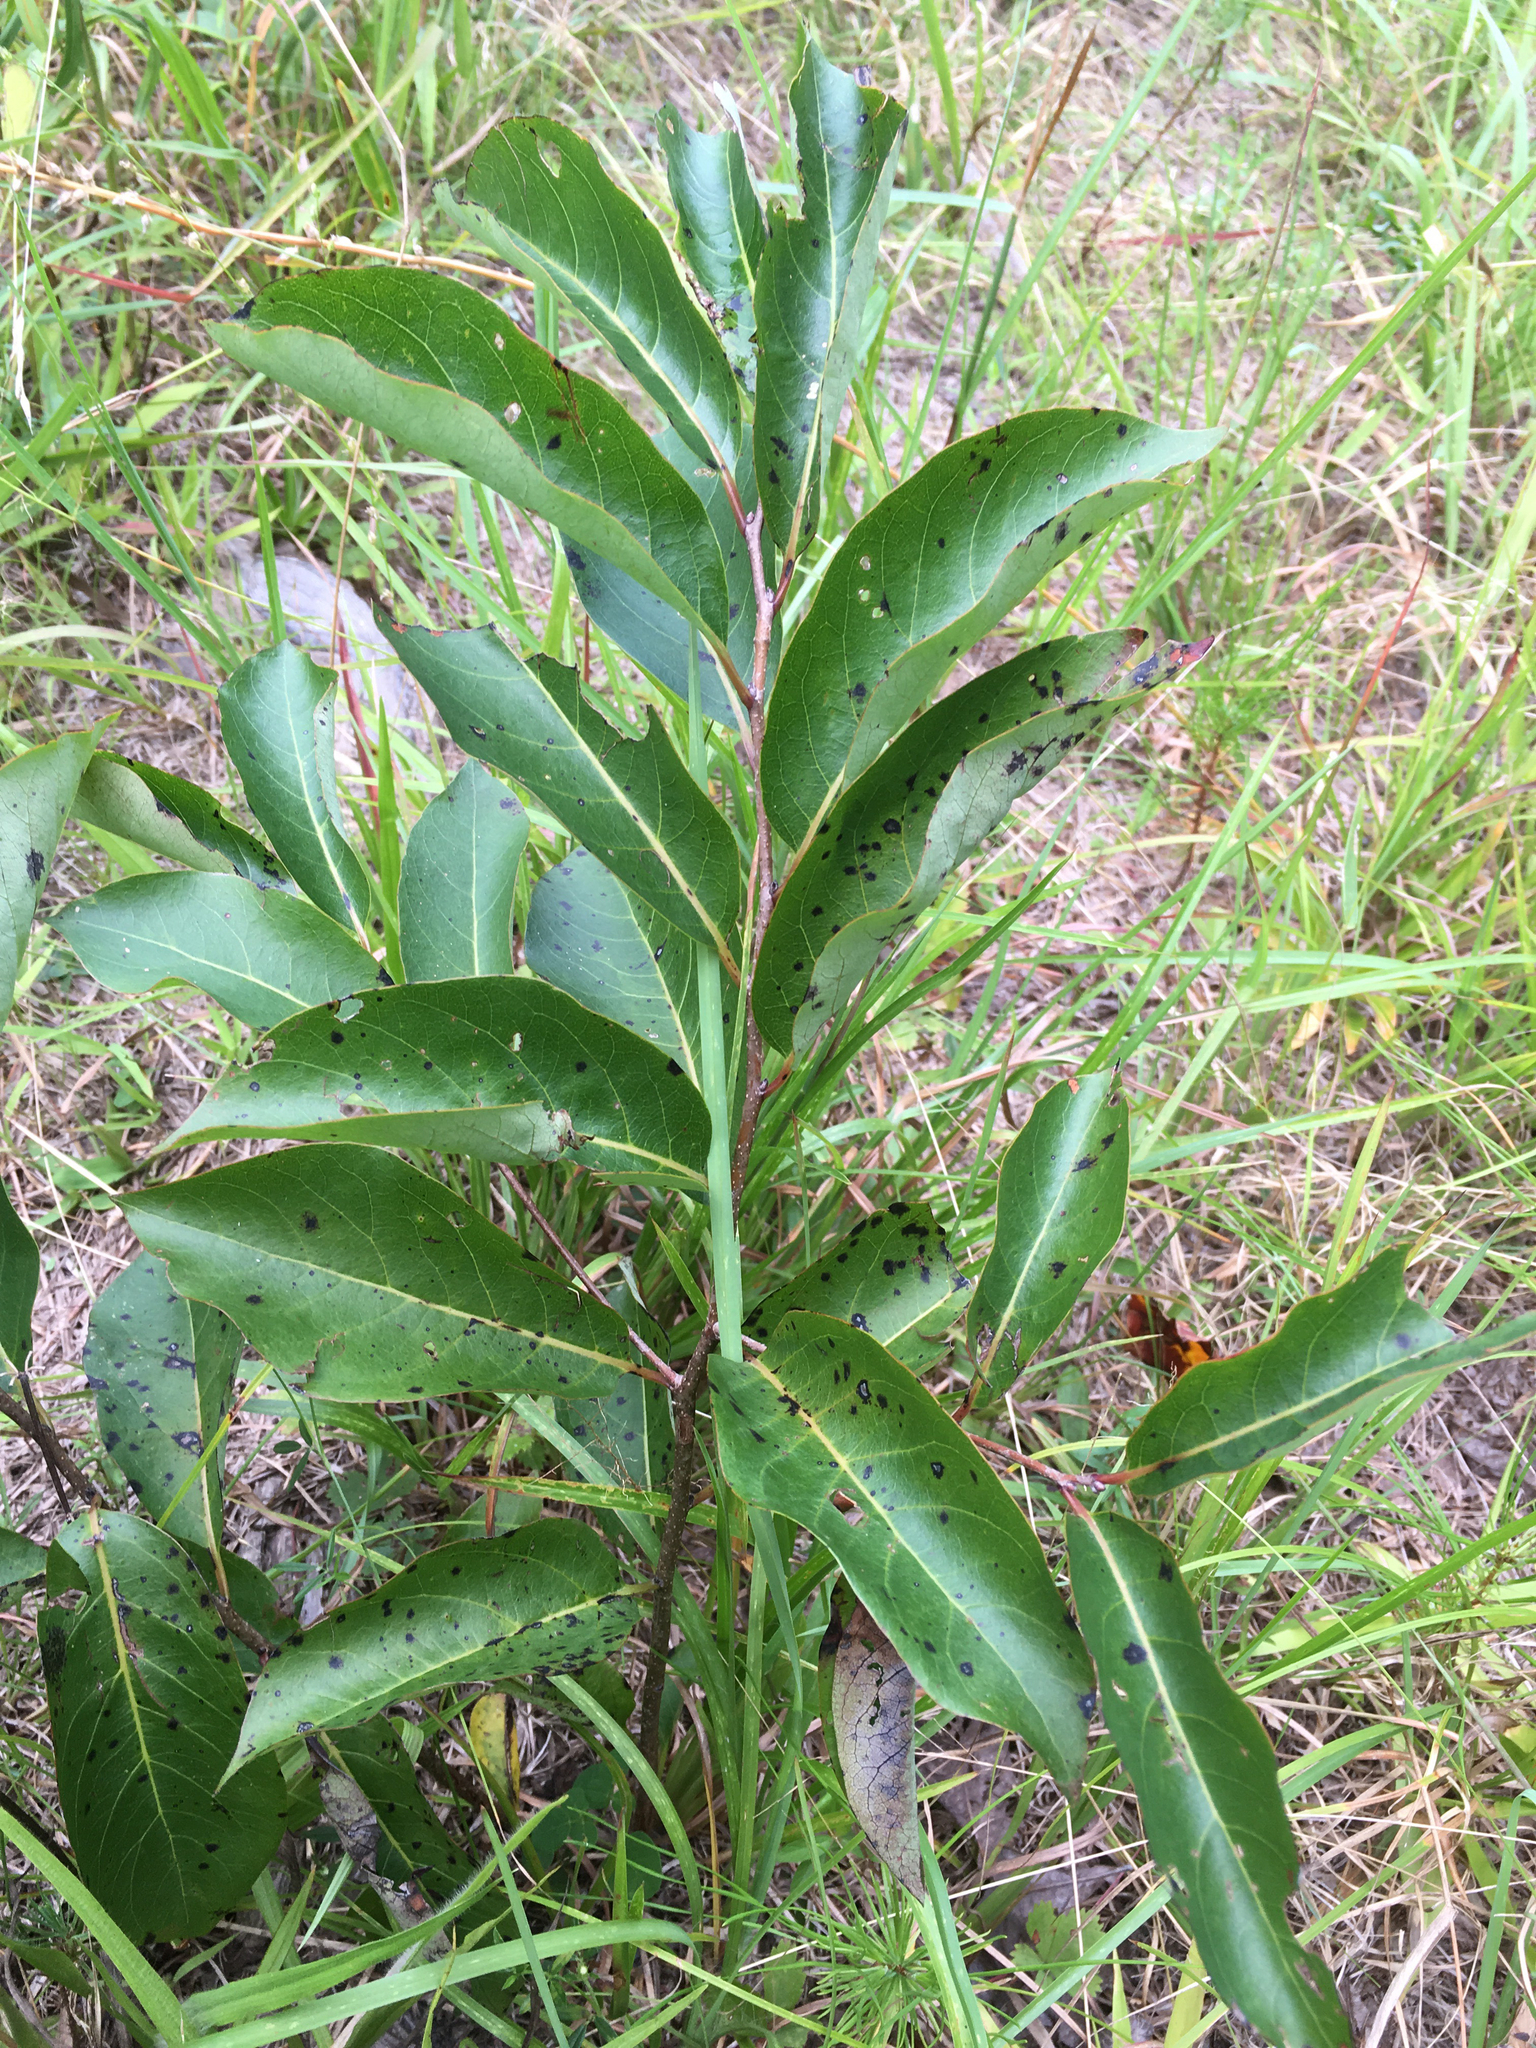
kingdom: Plantae
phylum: Tracheophyta
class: Magnoliopsida
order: Ericales
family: Ebenaceae
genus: Diospyros
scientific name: Diospyros virginiana
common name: Persimmon
